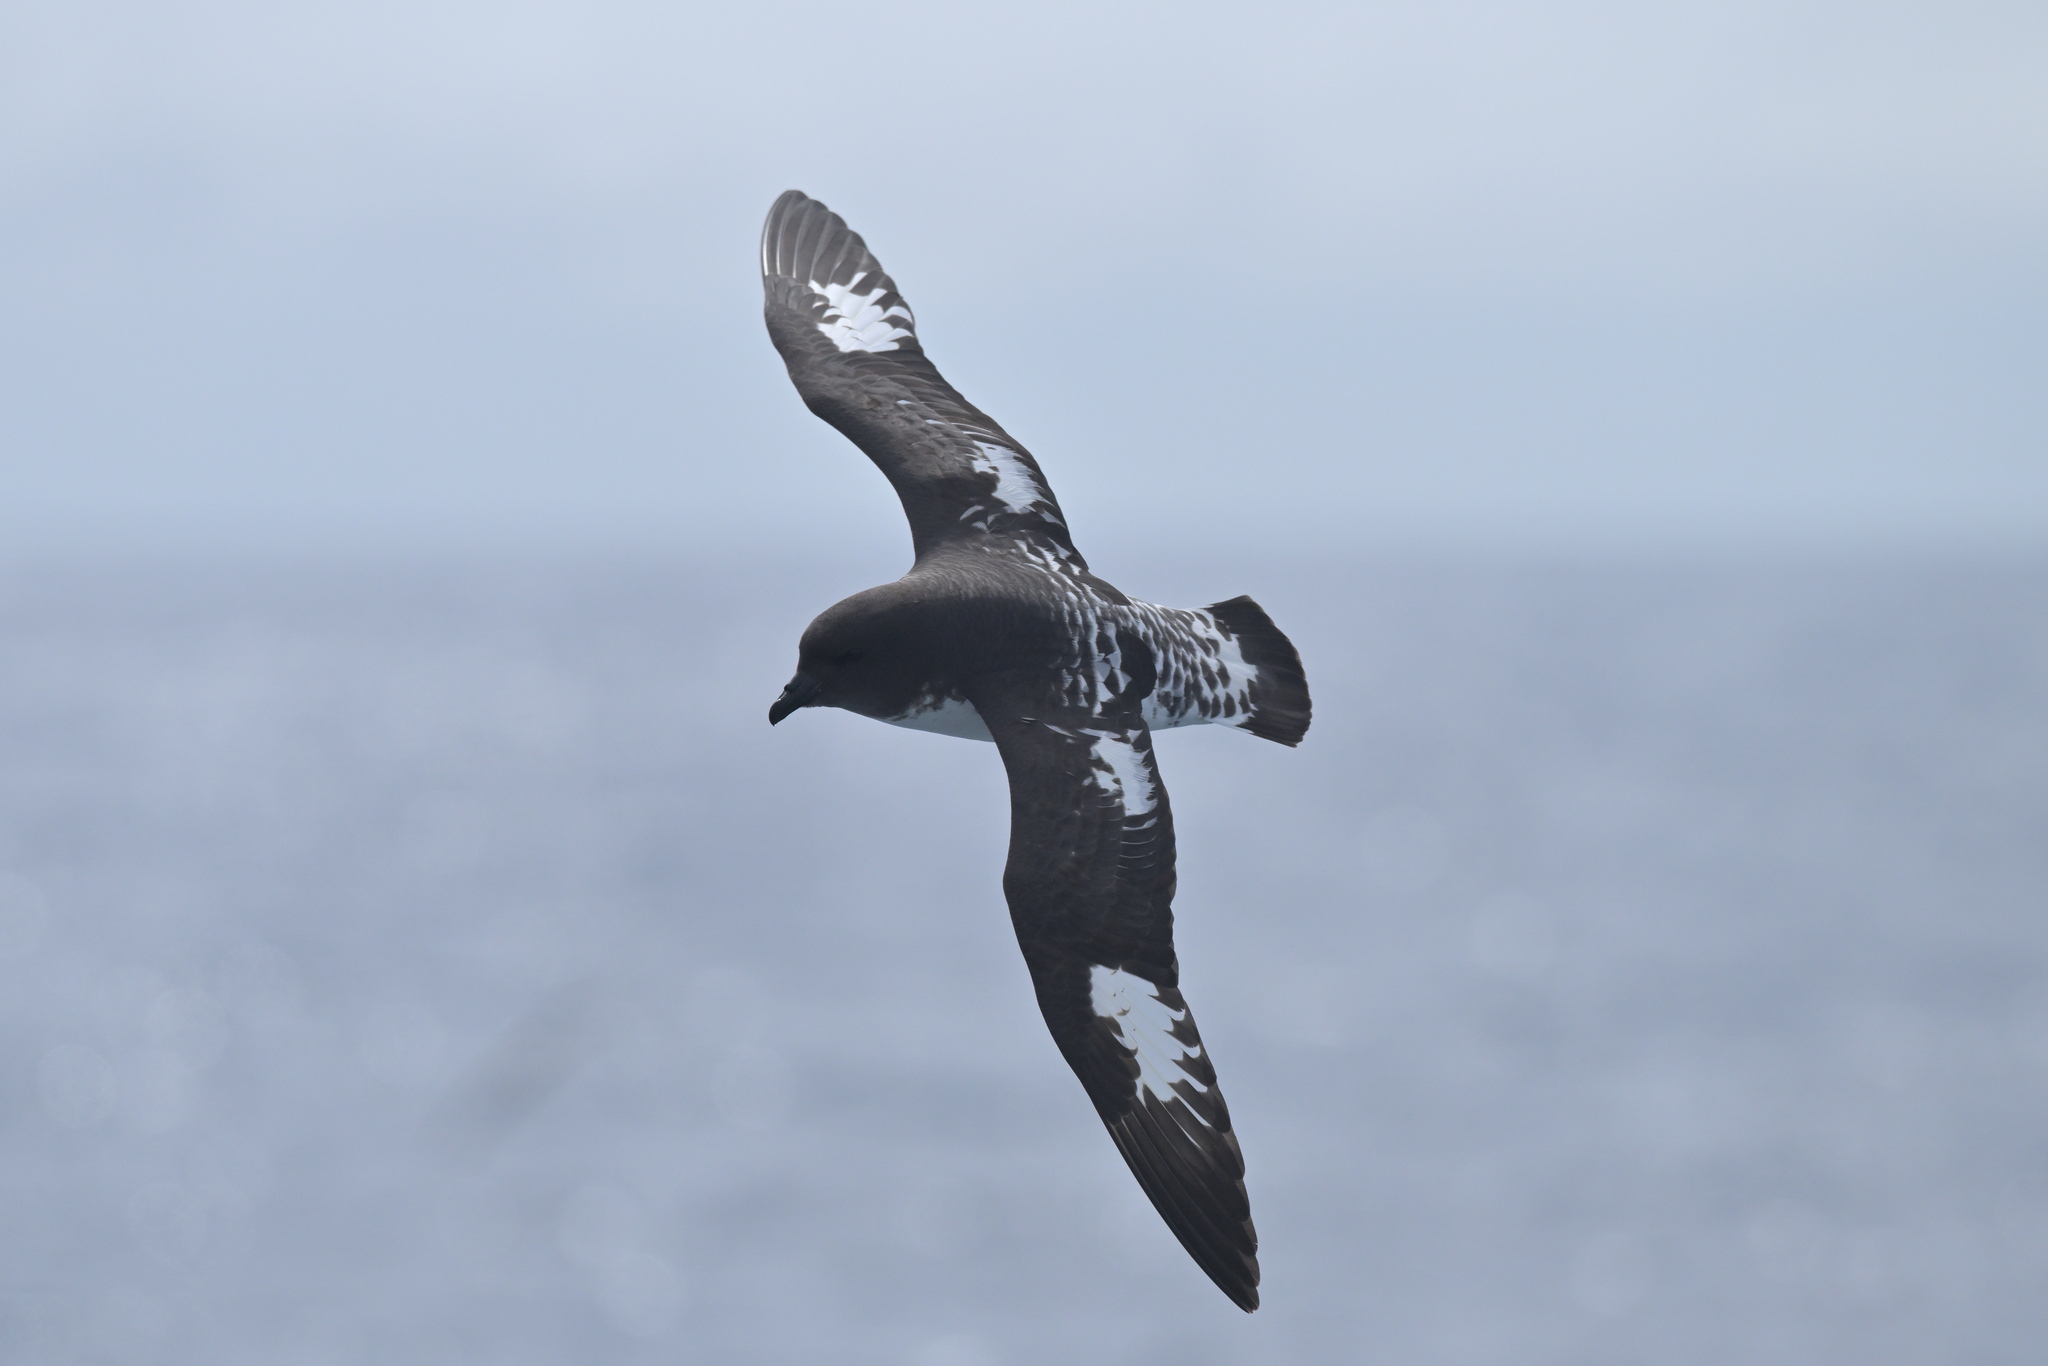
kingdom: Animalia
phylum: Chordata
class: Aves
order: Procellariiformes
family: Procellariidae
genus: Daption
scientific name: Daption capense
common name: Cape petrel
